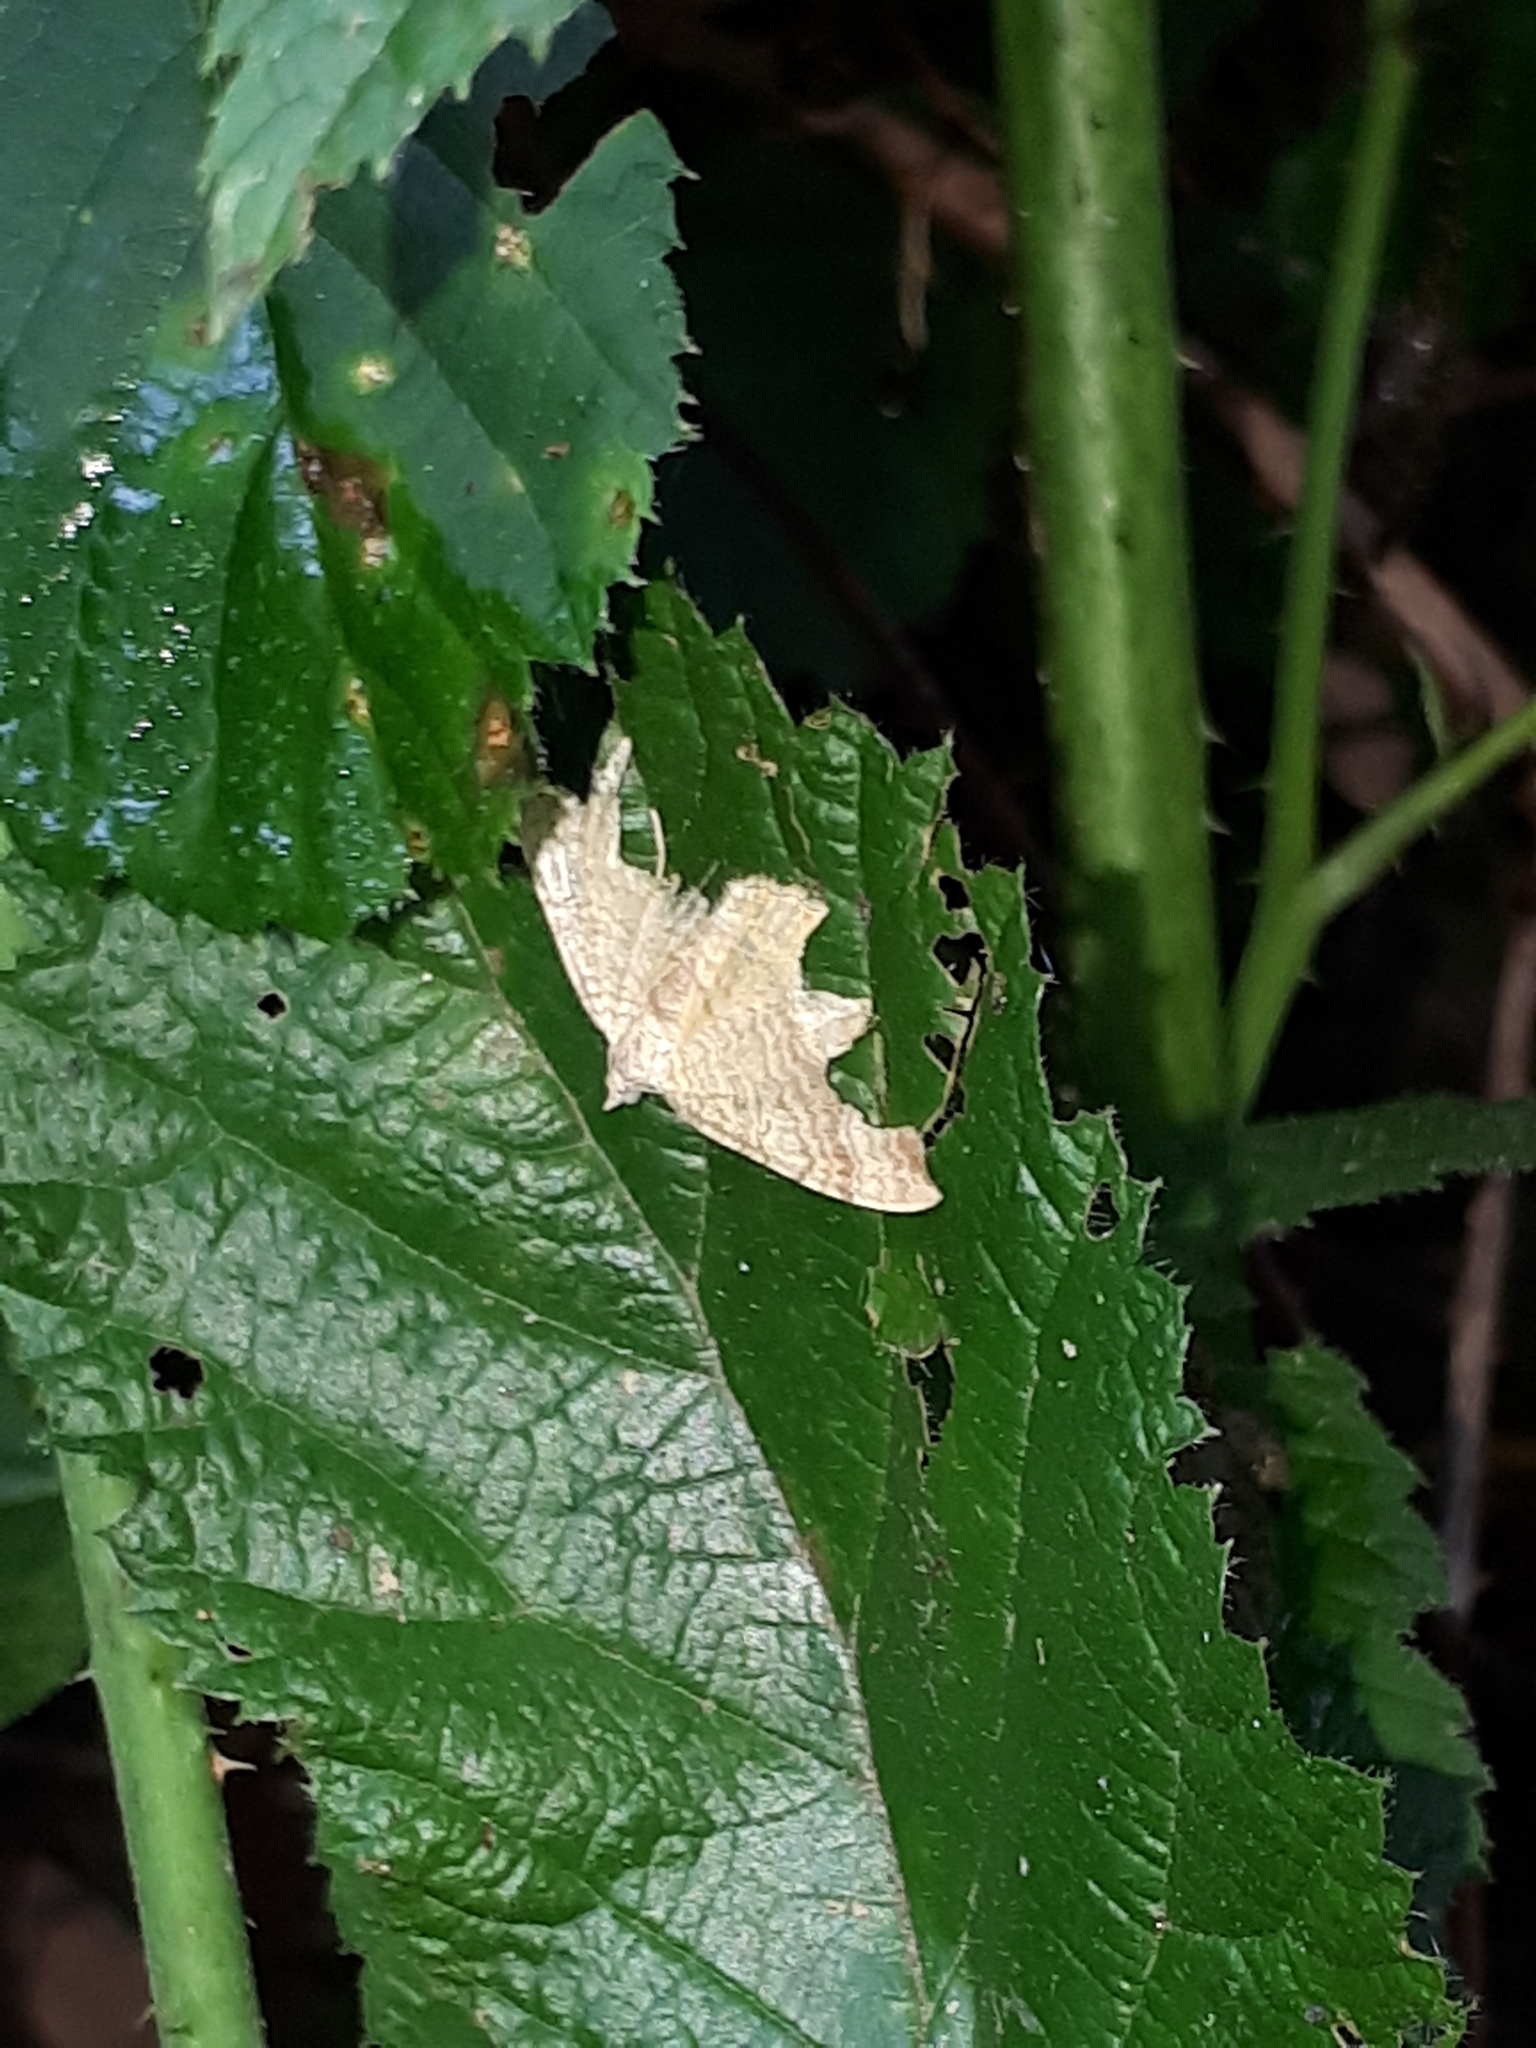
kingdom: Animalia
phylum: Arthropoda
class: Insecta
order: Lepidoptera
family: Geometridae
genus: Camptogramma
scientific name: Camptogramma bilineata
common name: Yellow shell
